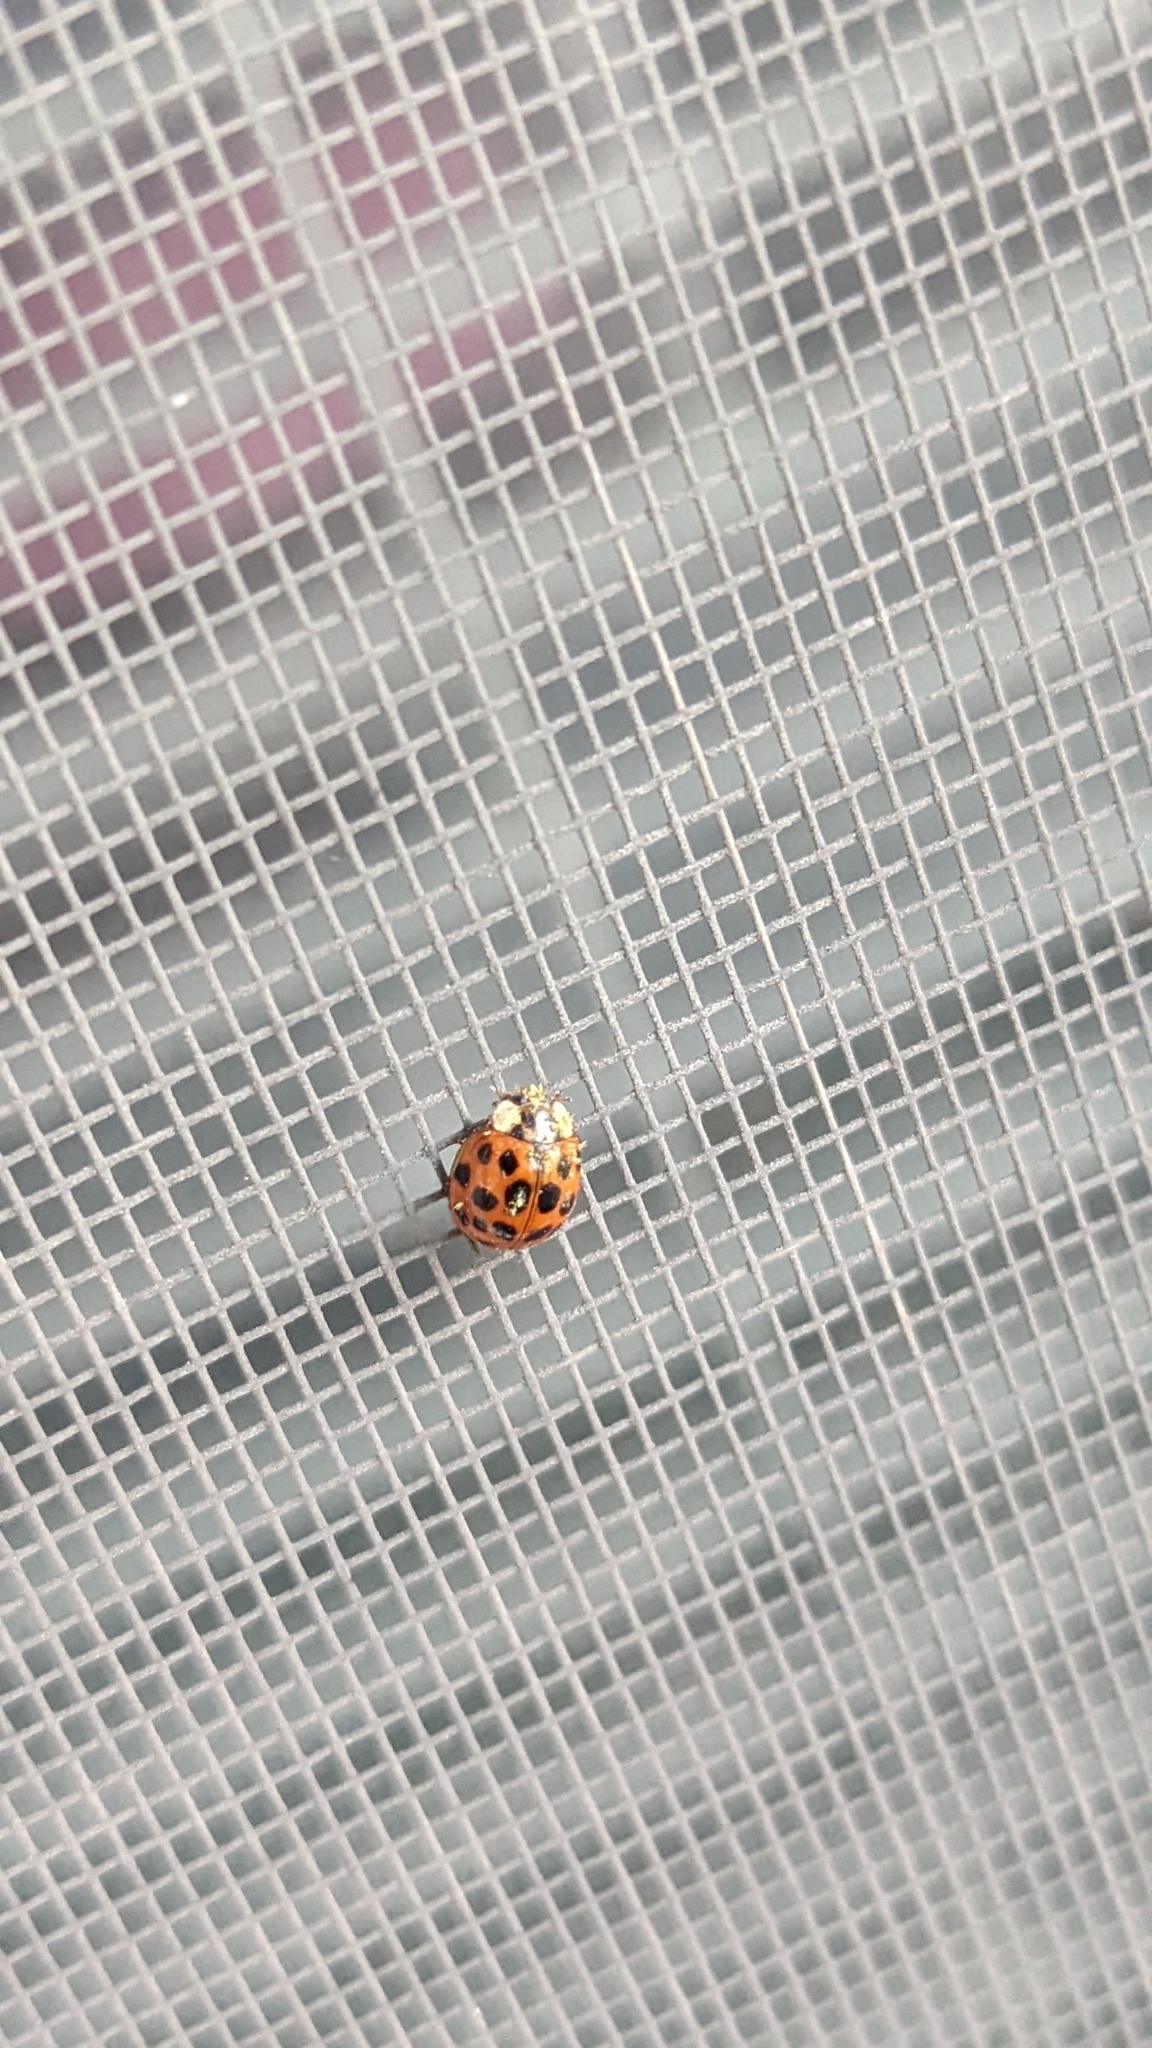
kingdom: Animalia
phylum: Arthropoda
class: Insecta
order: Coleoptera
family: Coccinellidae
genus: Harmonia
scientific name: Harmonia axyridis
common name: Harlequin ladybird
